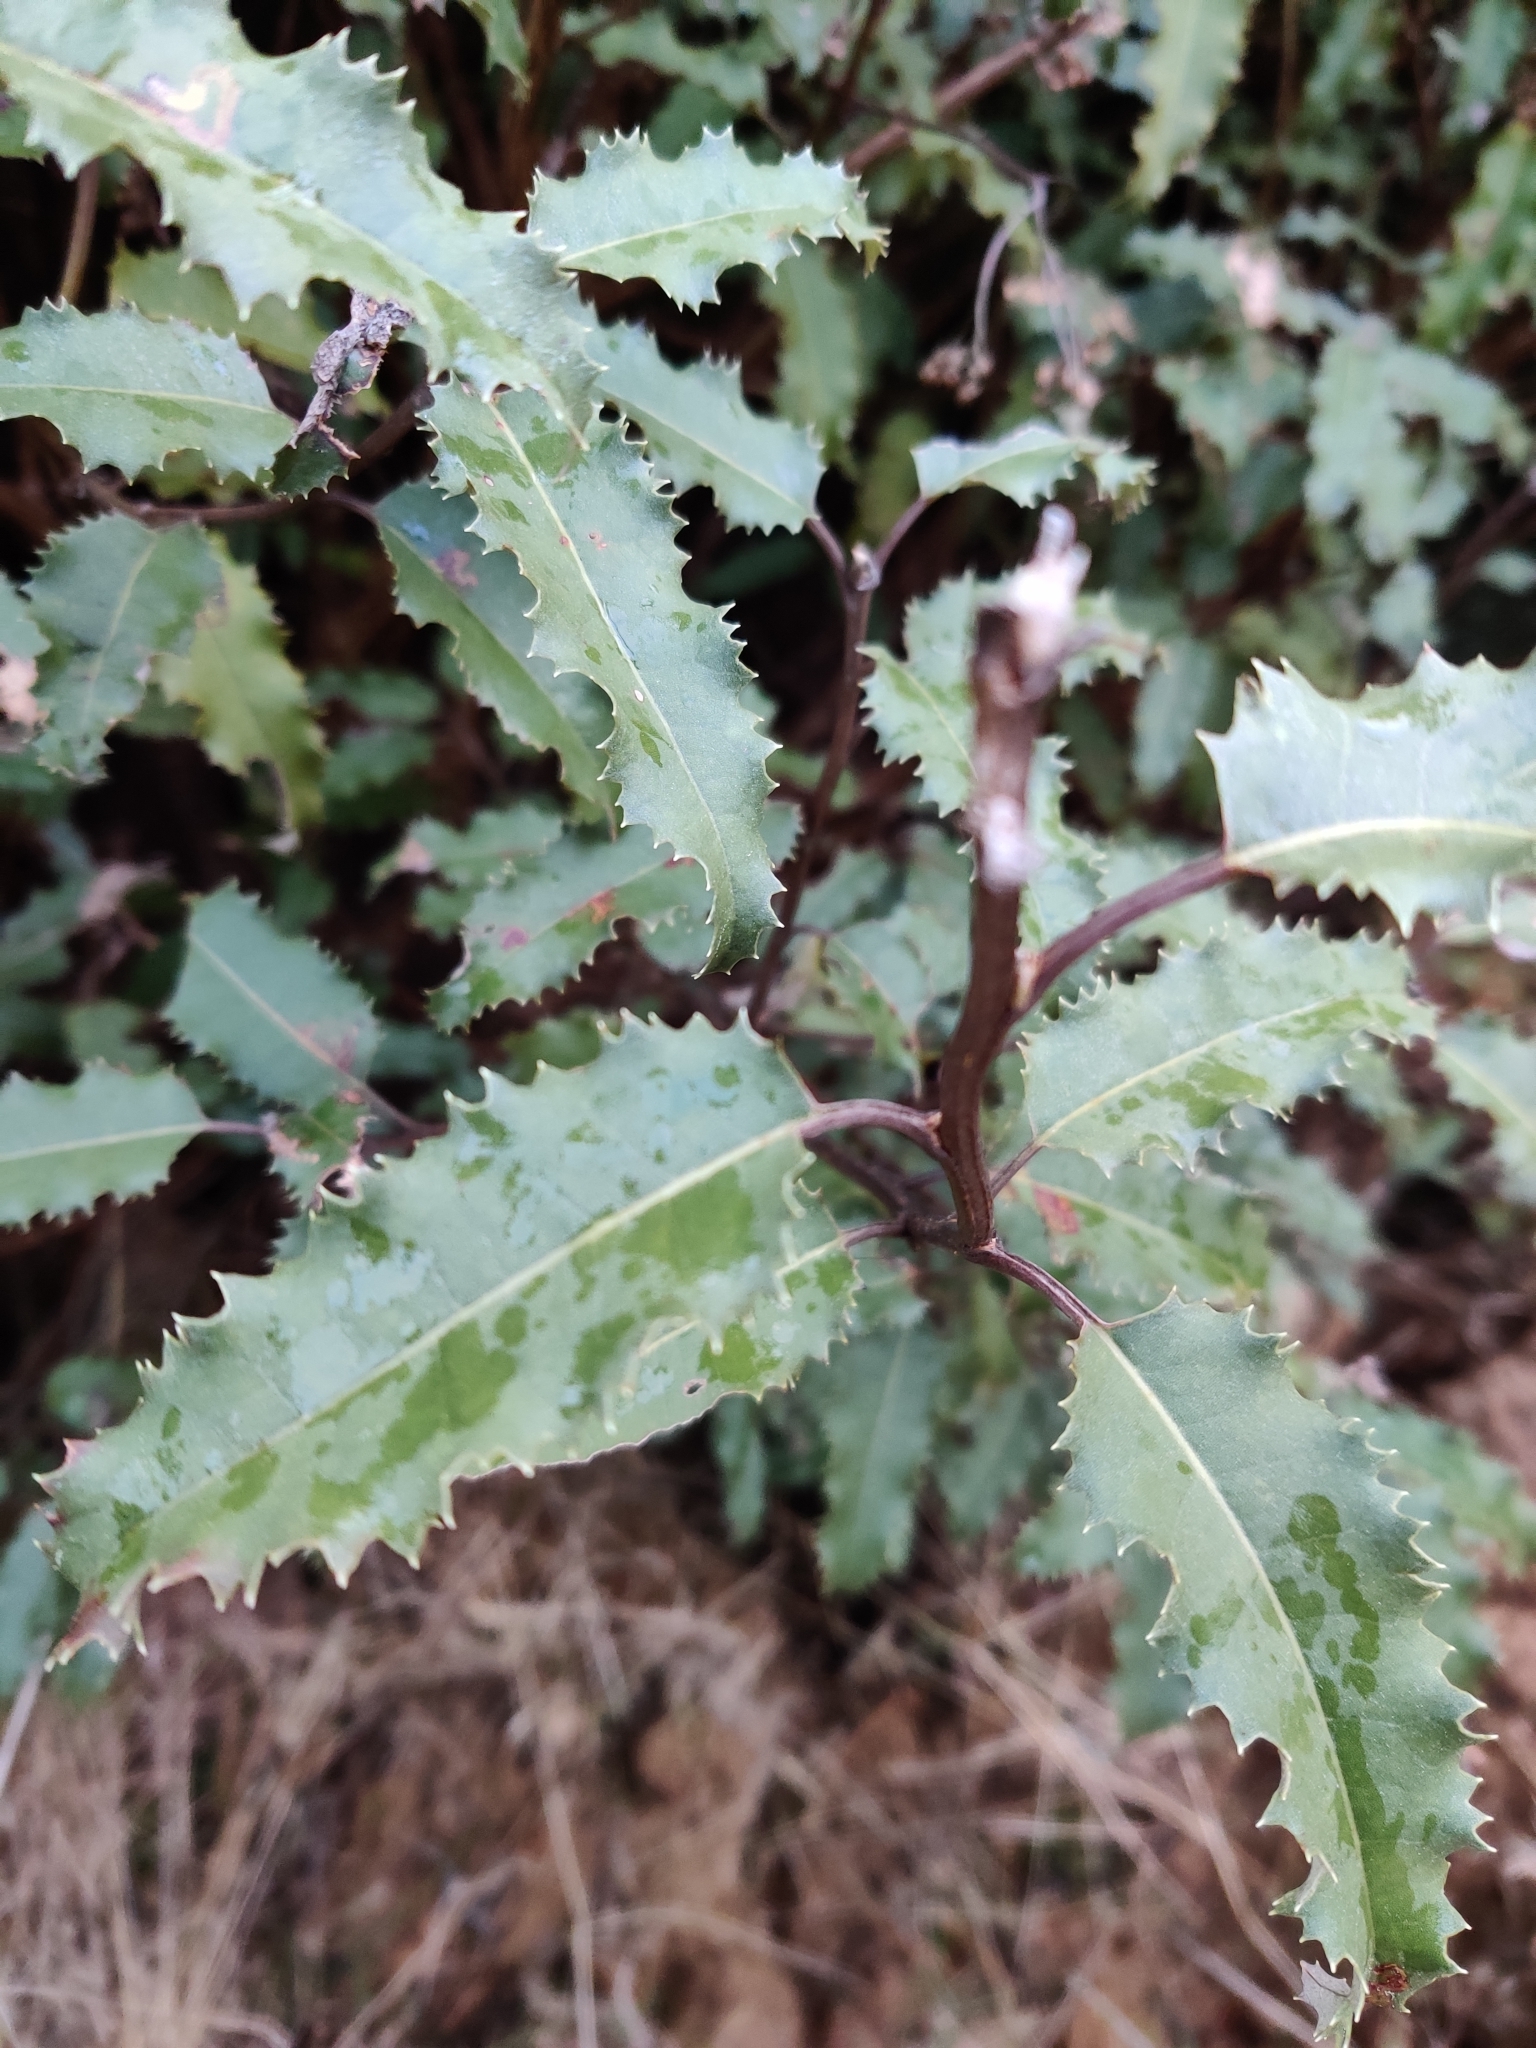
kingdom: Plantae
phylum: Tracheophyta
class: Magnoliopsida
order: Asterales
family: Asteraceae
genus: Olearia
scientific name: Olearia ilicifolia
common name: Maori-holly
